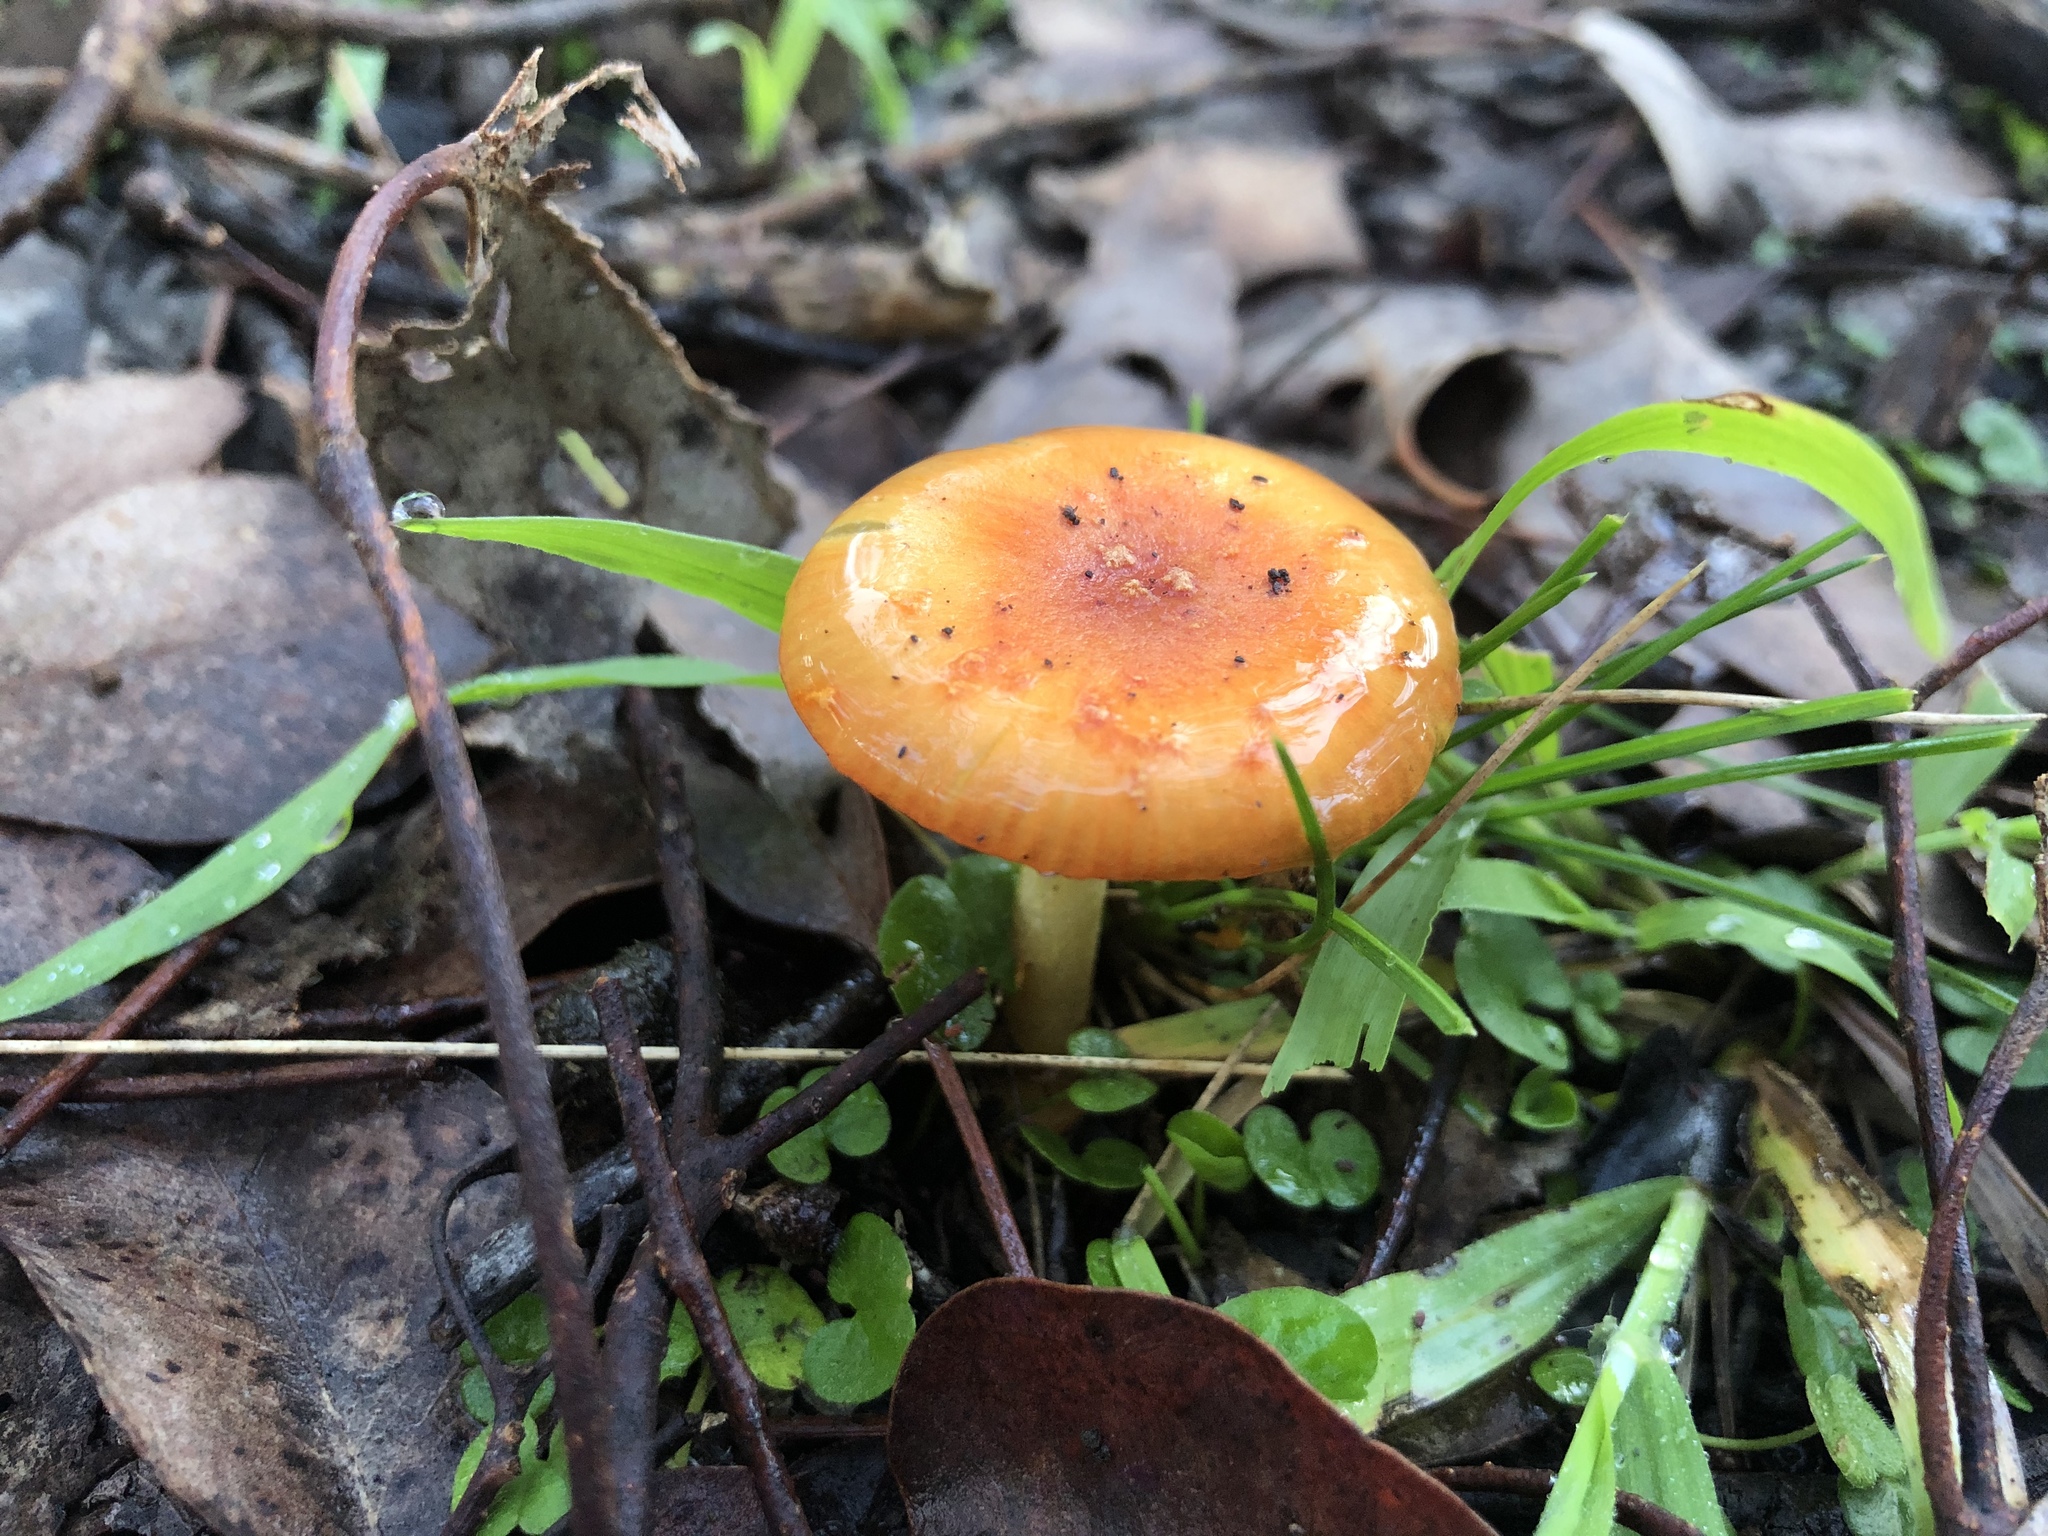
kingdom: Fungi
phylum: Basidiomycota
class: Agaricomycetes
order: Agaricales
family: Amanitaceae
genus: Amanita
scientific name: Amanita xanthocephala
